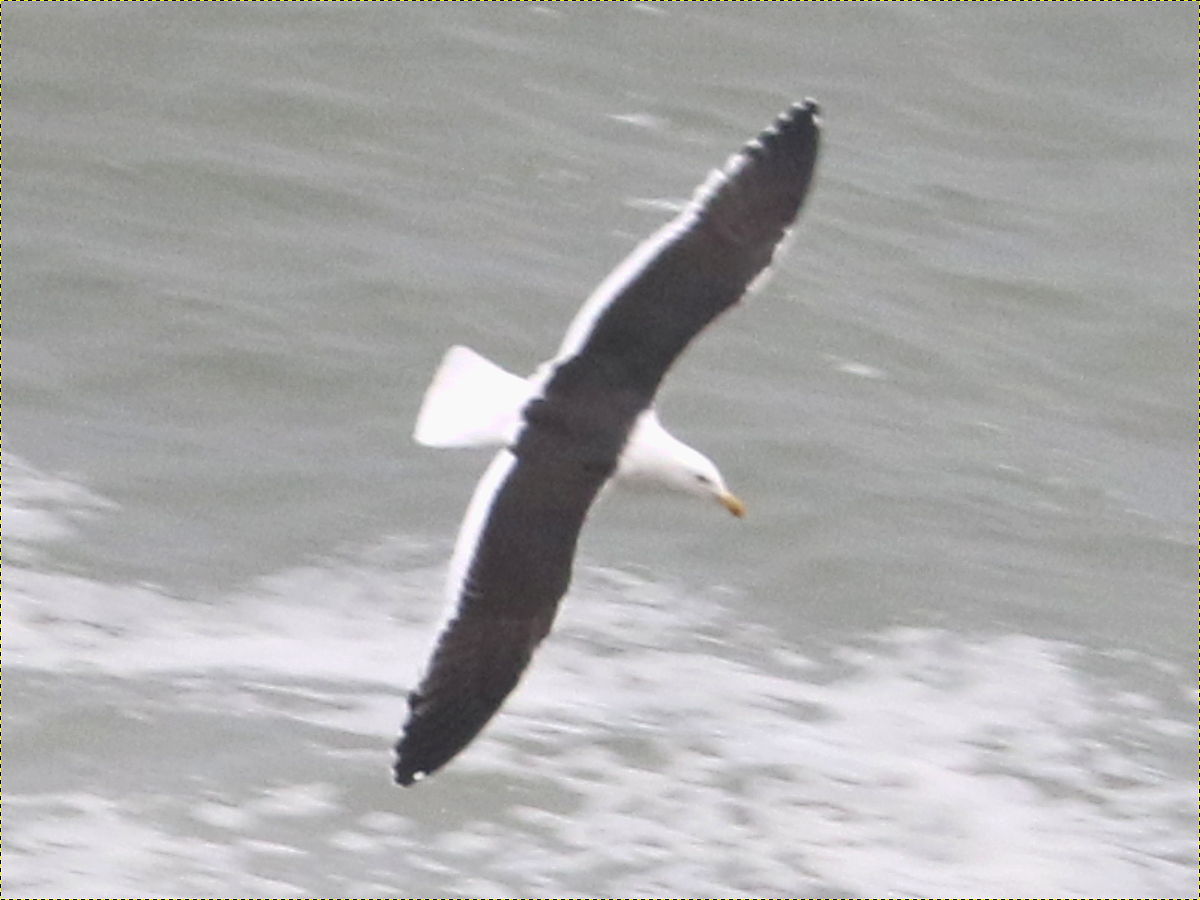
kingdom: Animalia
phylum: Chordata
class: Aves
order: Charadriiformes
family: Laridae
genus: Larus
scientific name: Larus dominicanus
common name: Kelp gull
